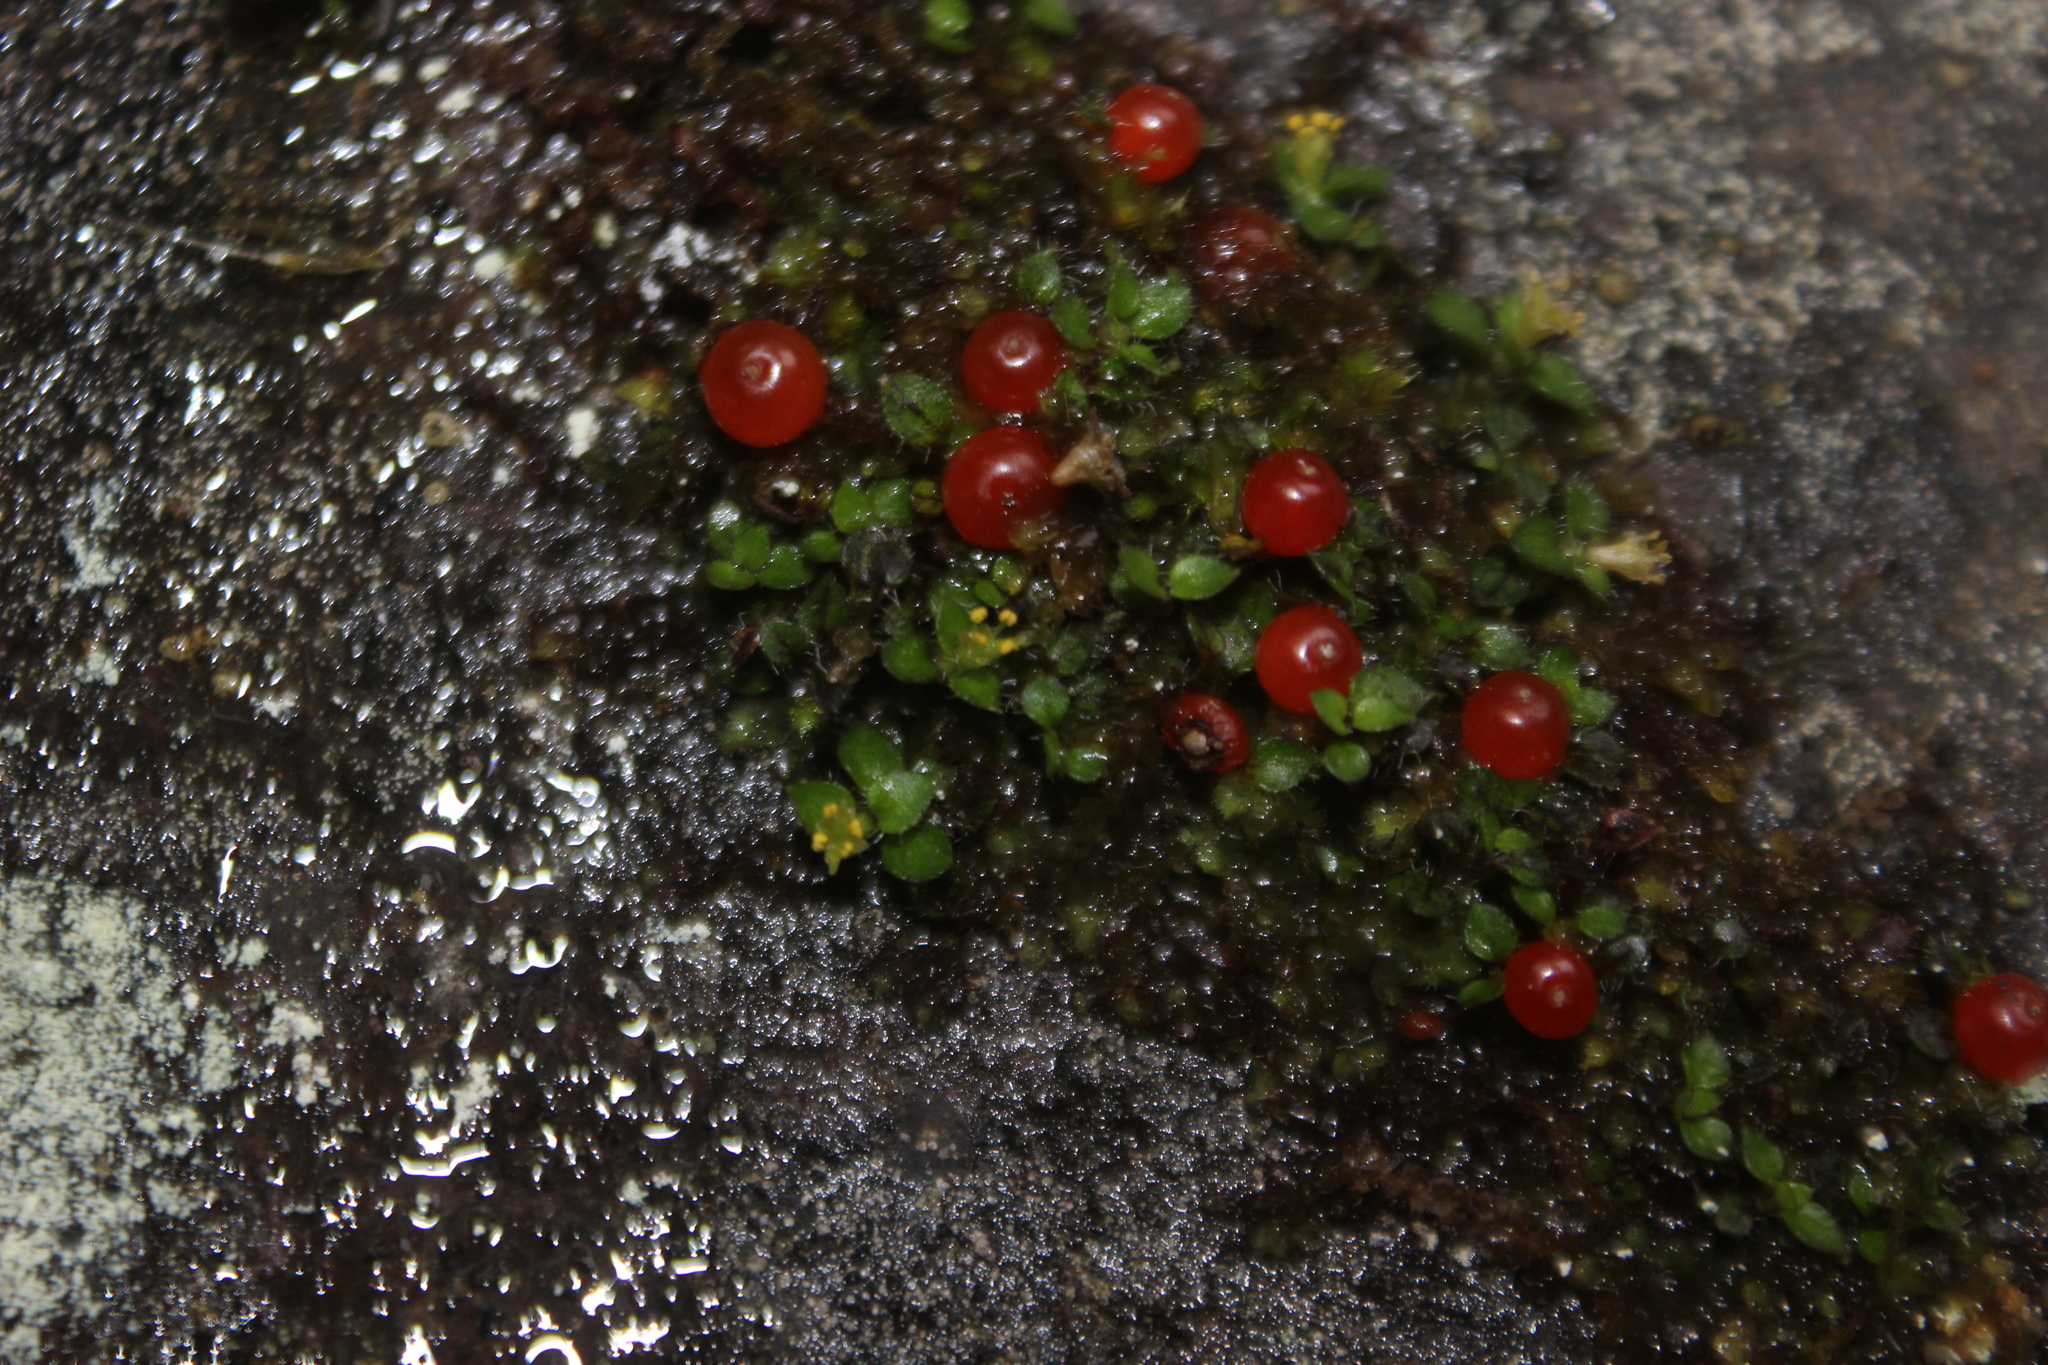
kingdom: Plantae
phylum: Tracheophyta
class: Magnoliopsida
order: Gentianales
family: Rubiaceae
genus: Nertera
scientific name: Nertera granadensis
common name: Beadplant
